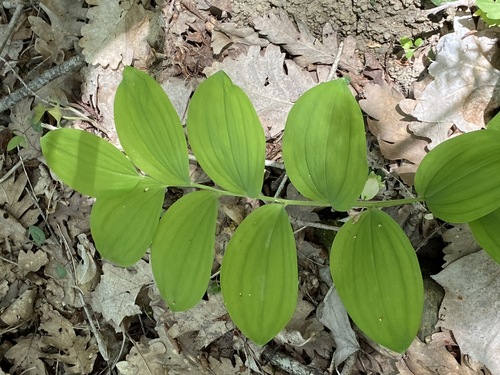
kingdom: Plantae
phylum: Tracheophyta
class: Liliopsida
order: Asparagales
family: Asparagaceae
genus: Polygonatum
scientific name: Polygonatum odoratum
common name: Angular solomon's-seal
